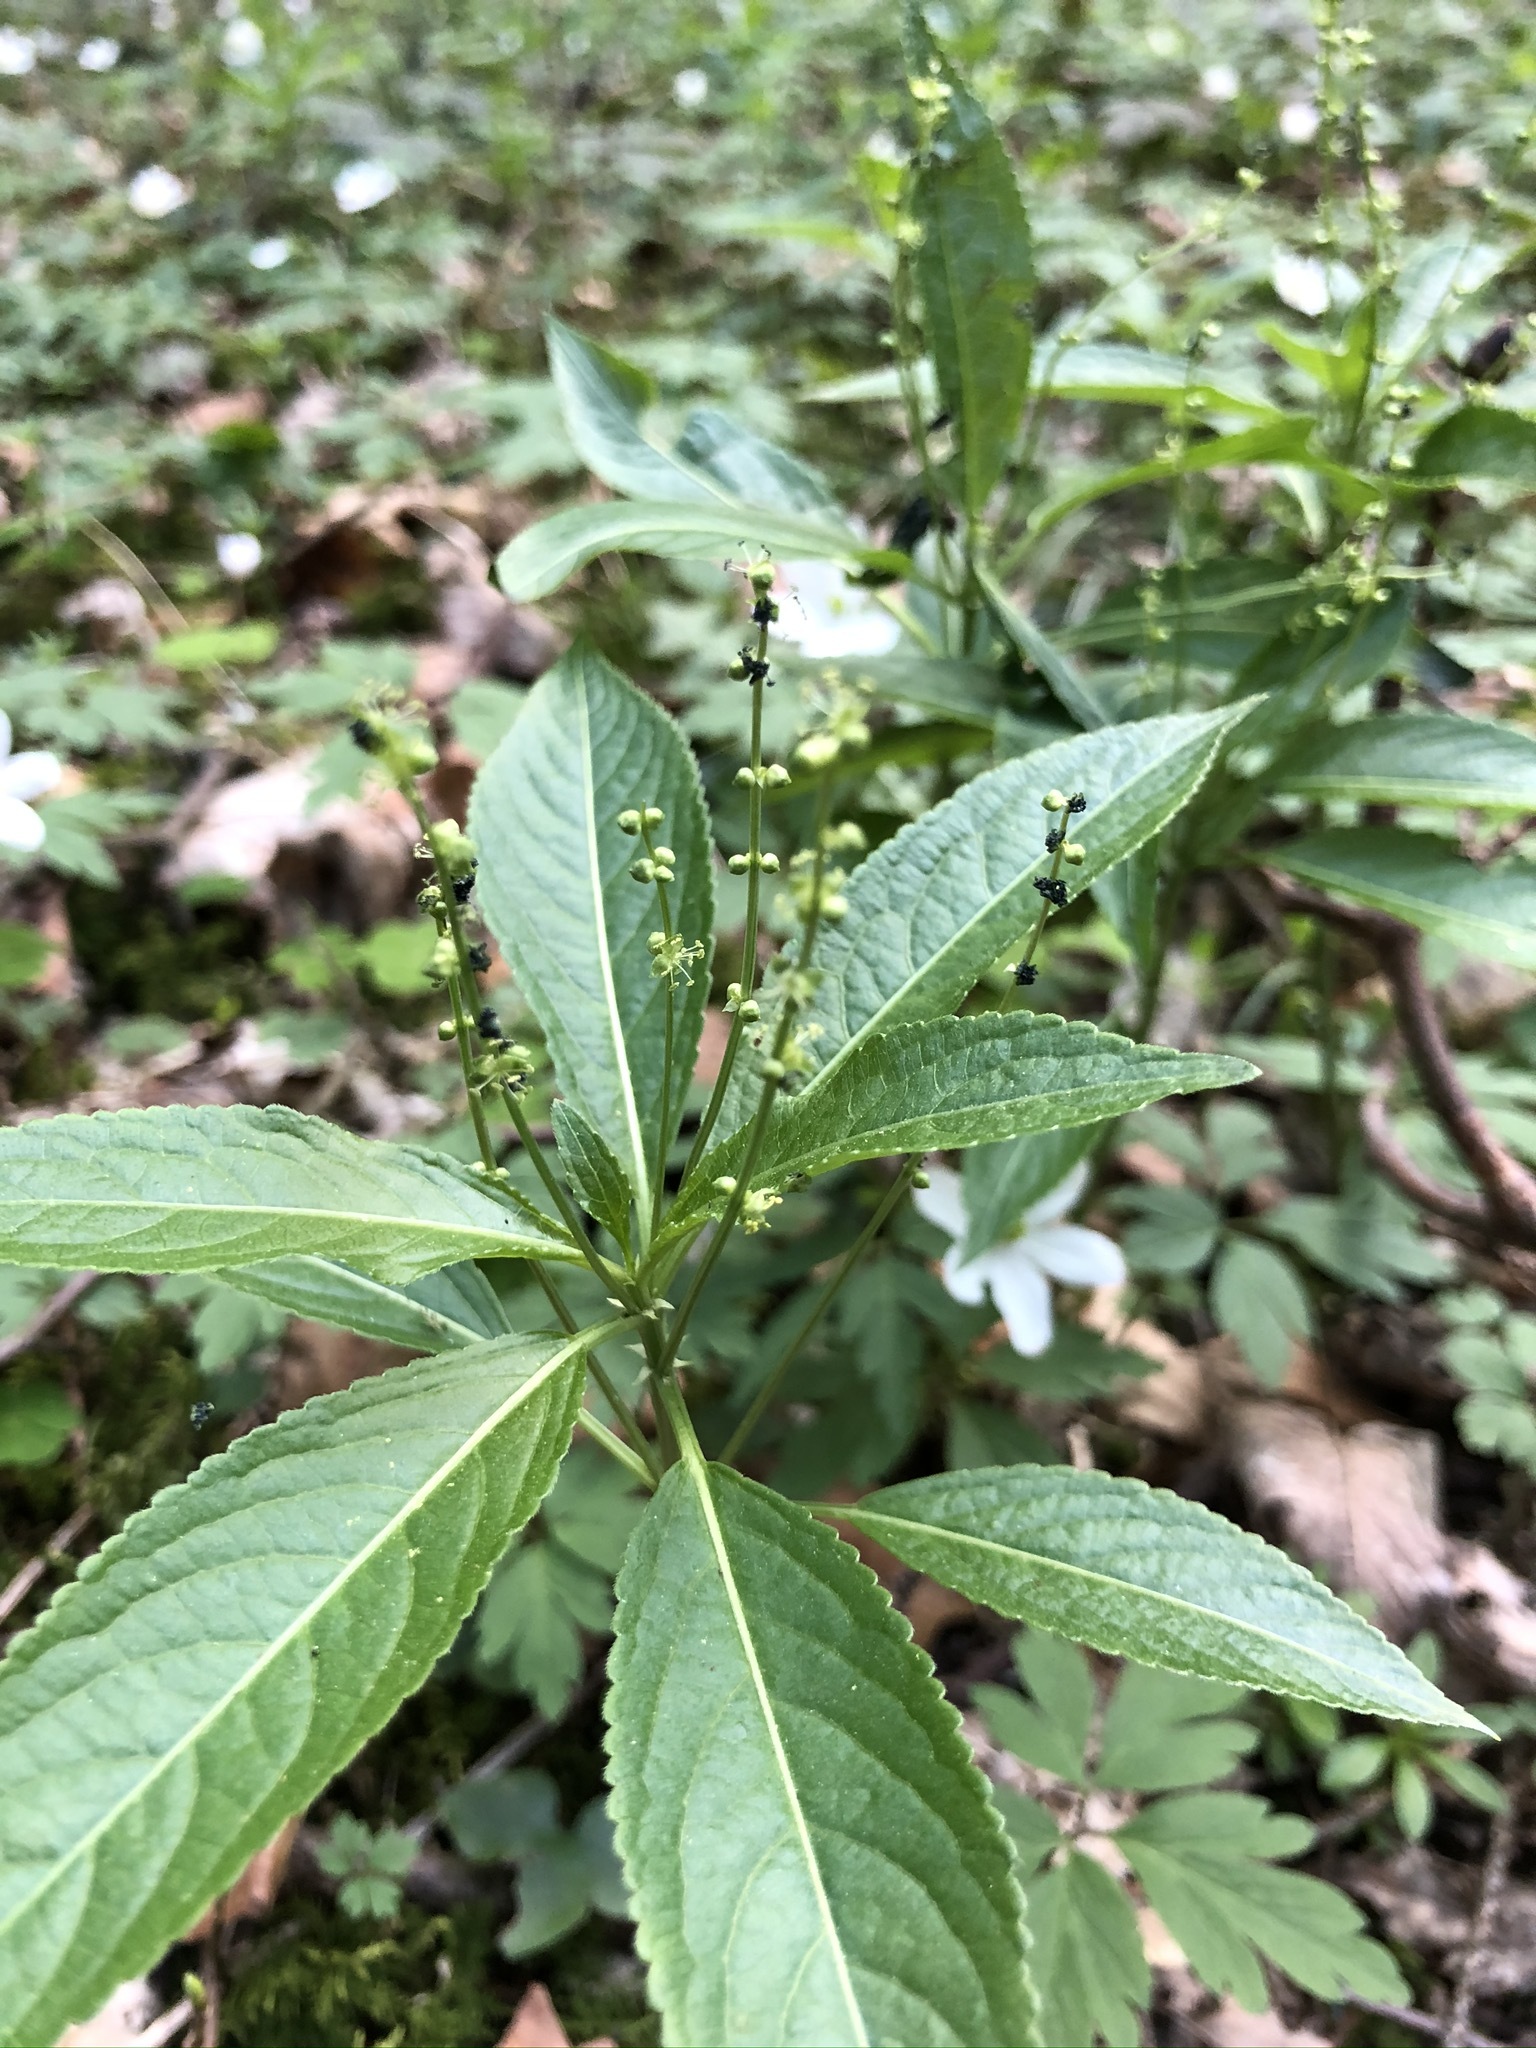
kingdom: Plantae
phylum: Tracheophyta
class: Magnoliopsida
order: Malpighiales
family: Euphorbiaceae
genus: Mercurialis
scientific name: Mercurialis perennis
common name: Dog mercury
